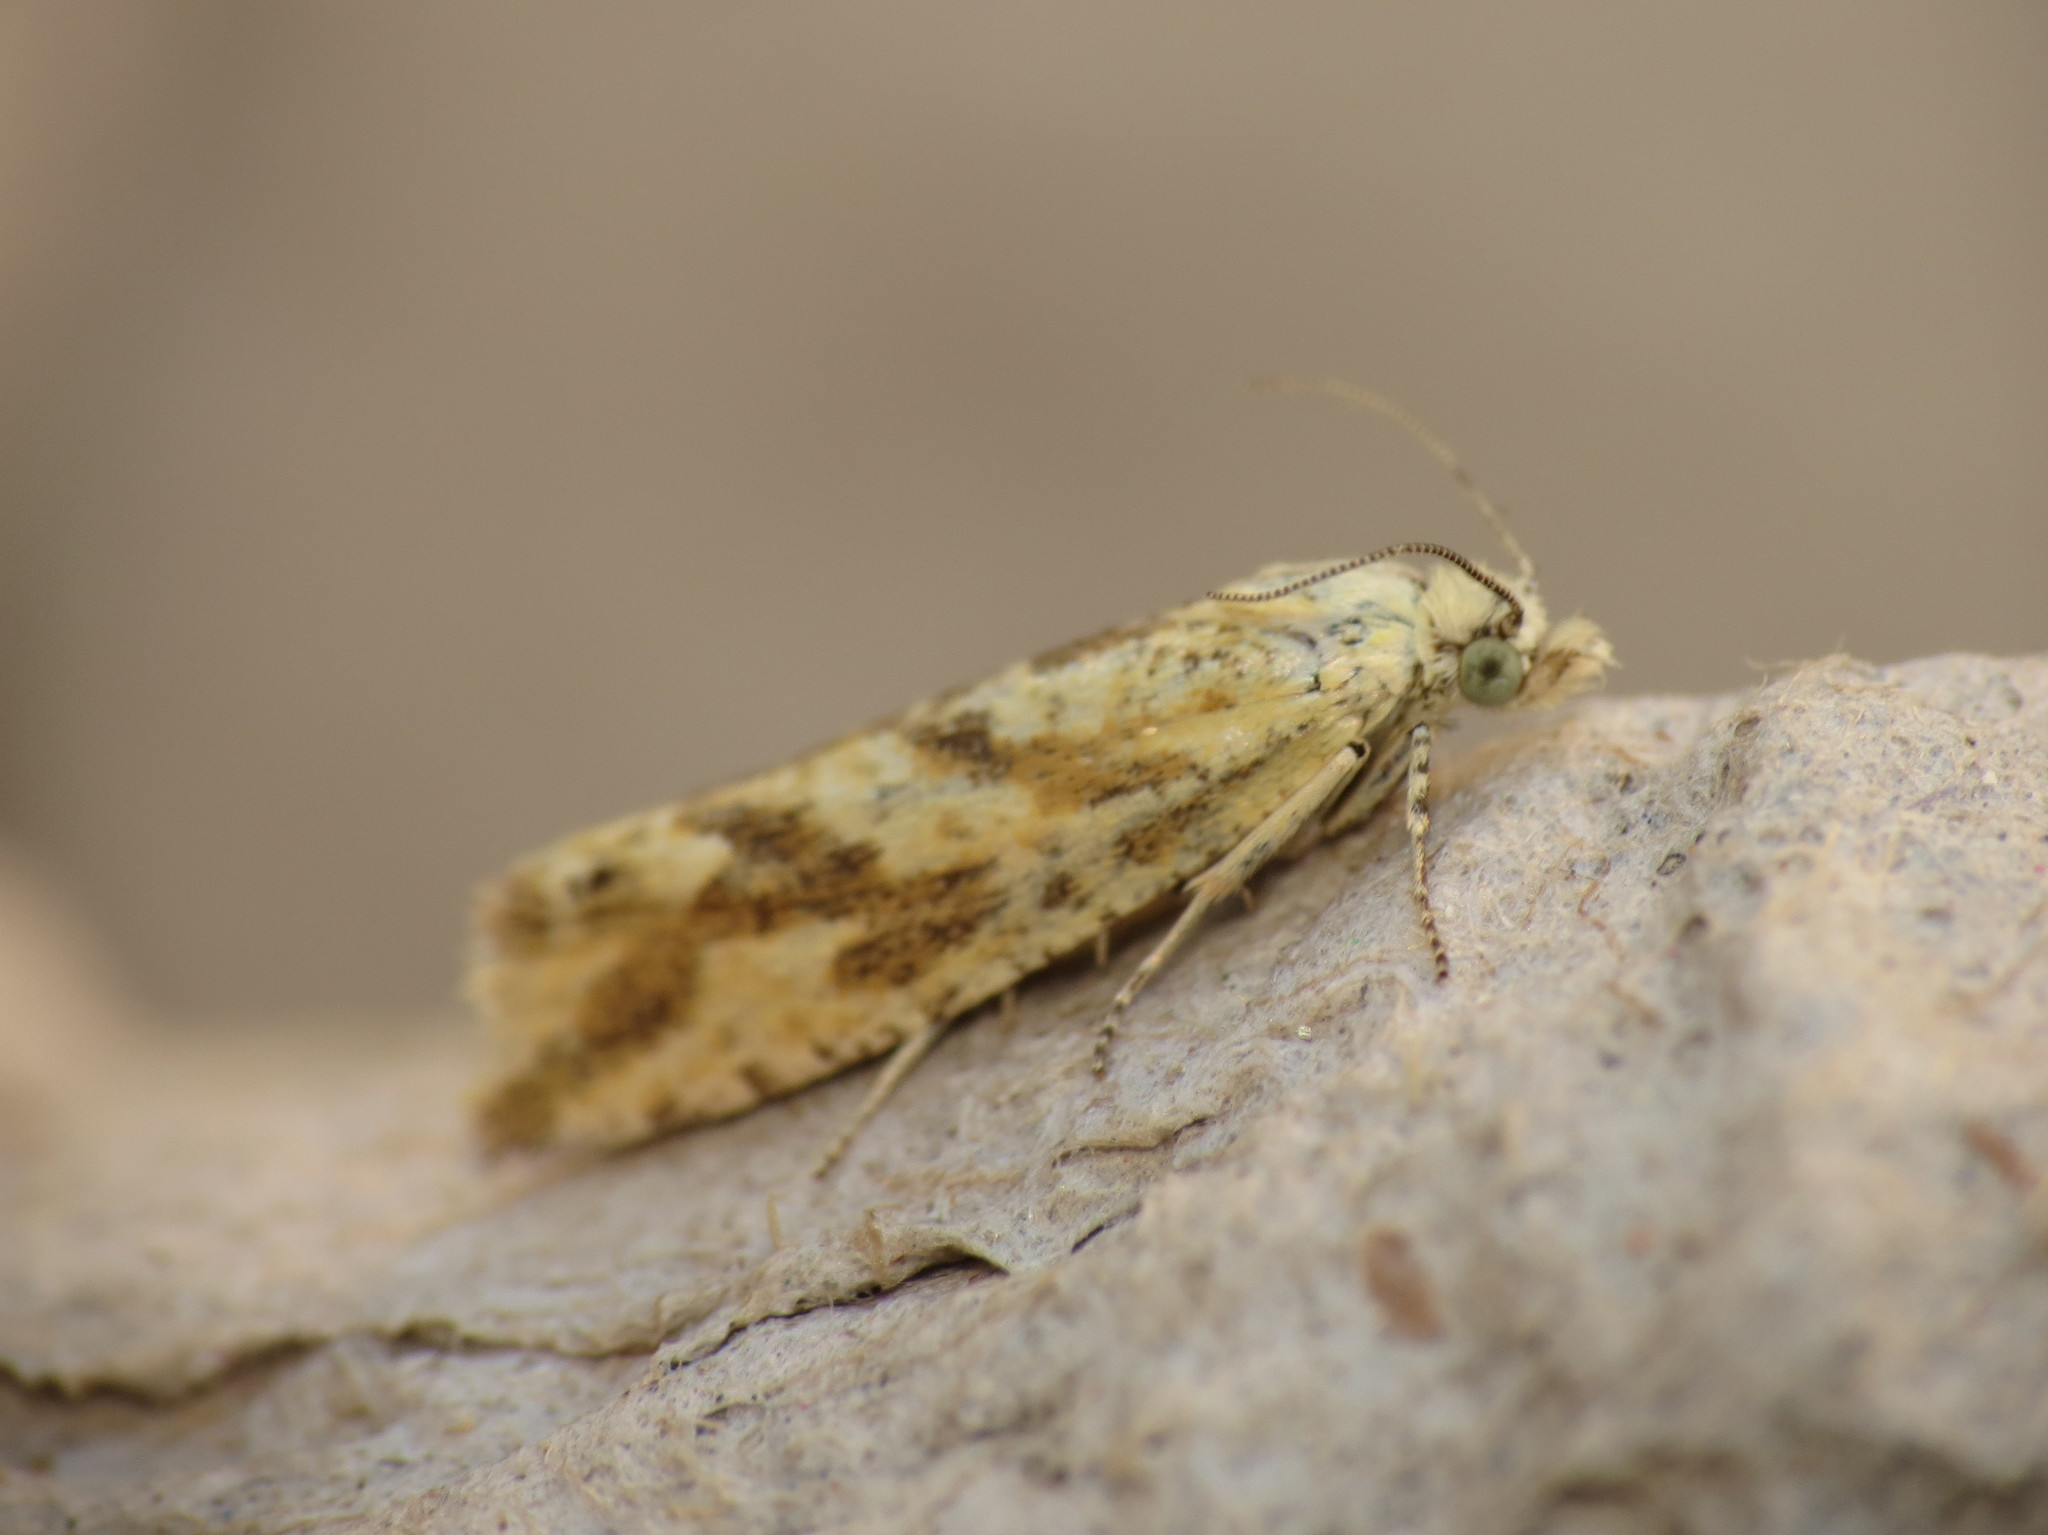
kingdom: Animalia
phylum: Arthropoda
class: Insecta
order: Lepidoptera
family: Tortricidae
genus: Thiodia
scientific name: Thiodia citrana
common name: Lemon bell
